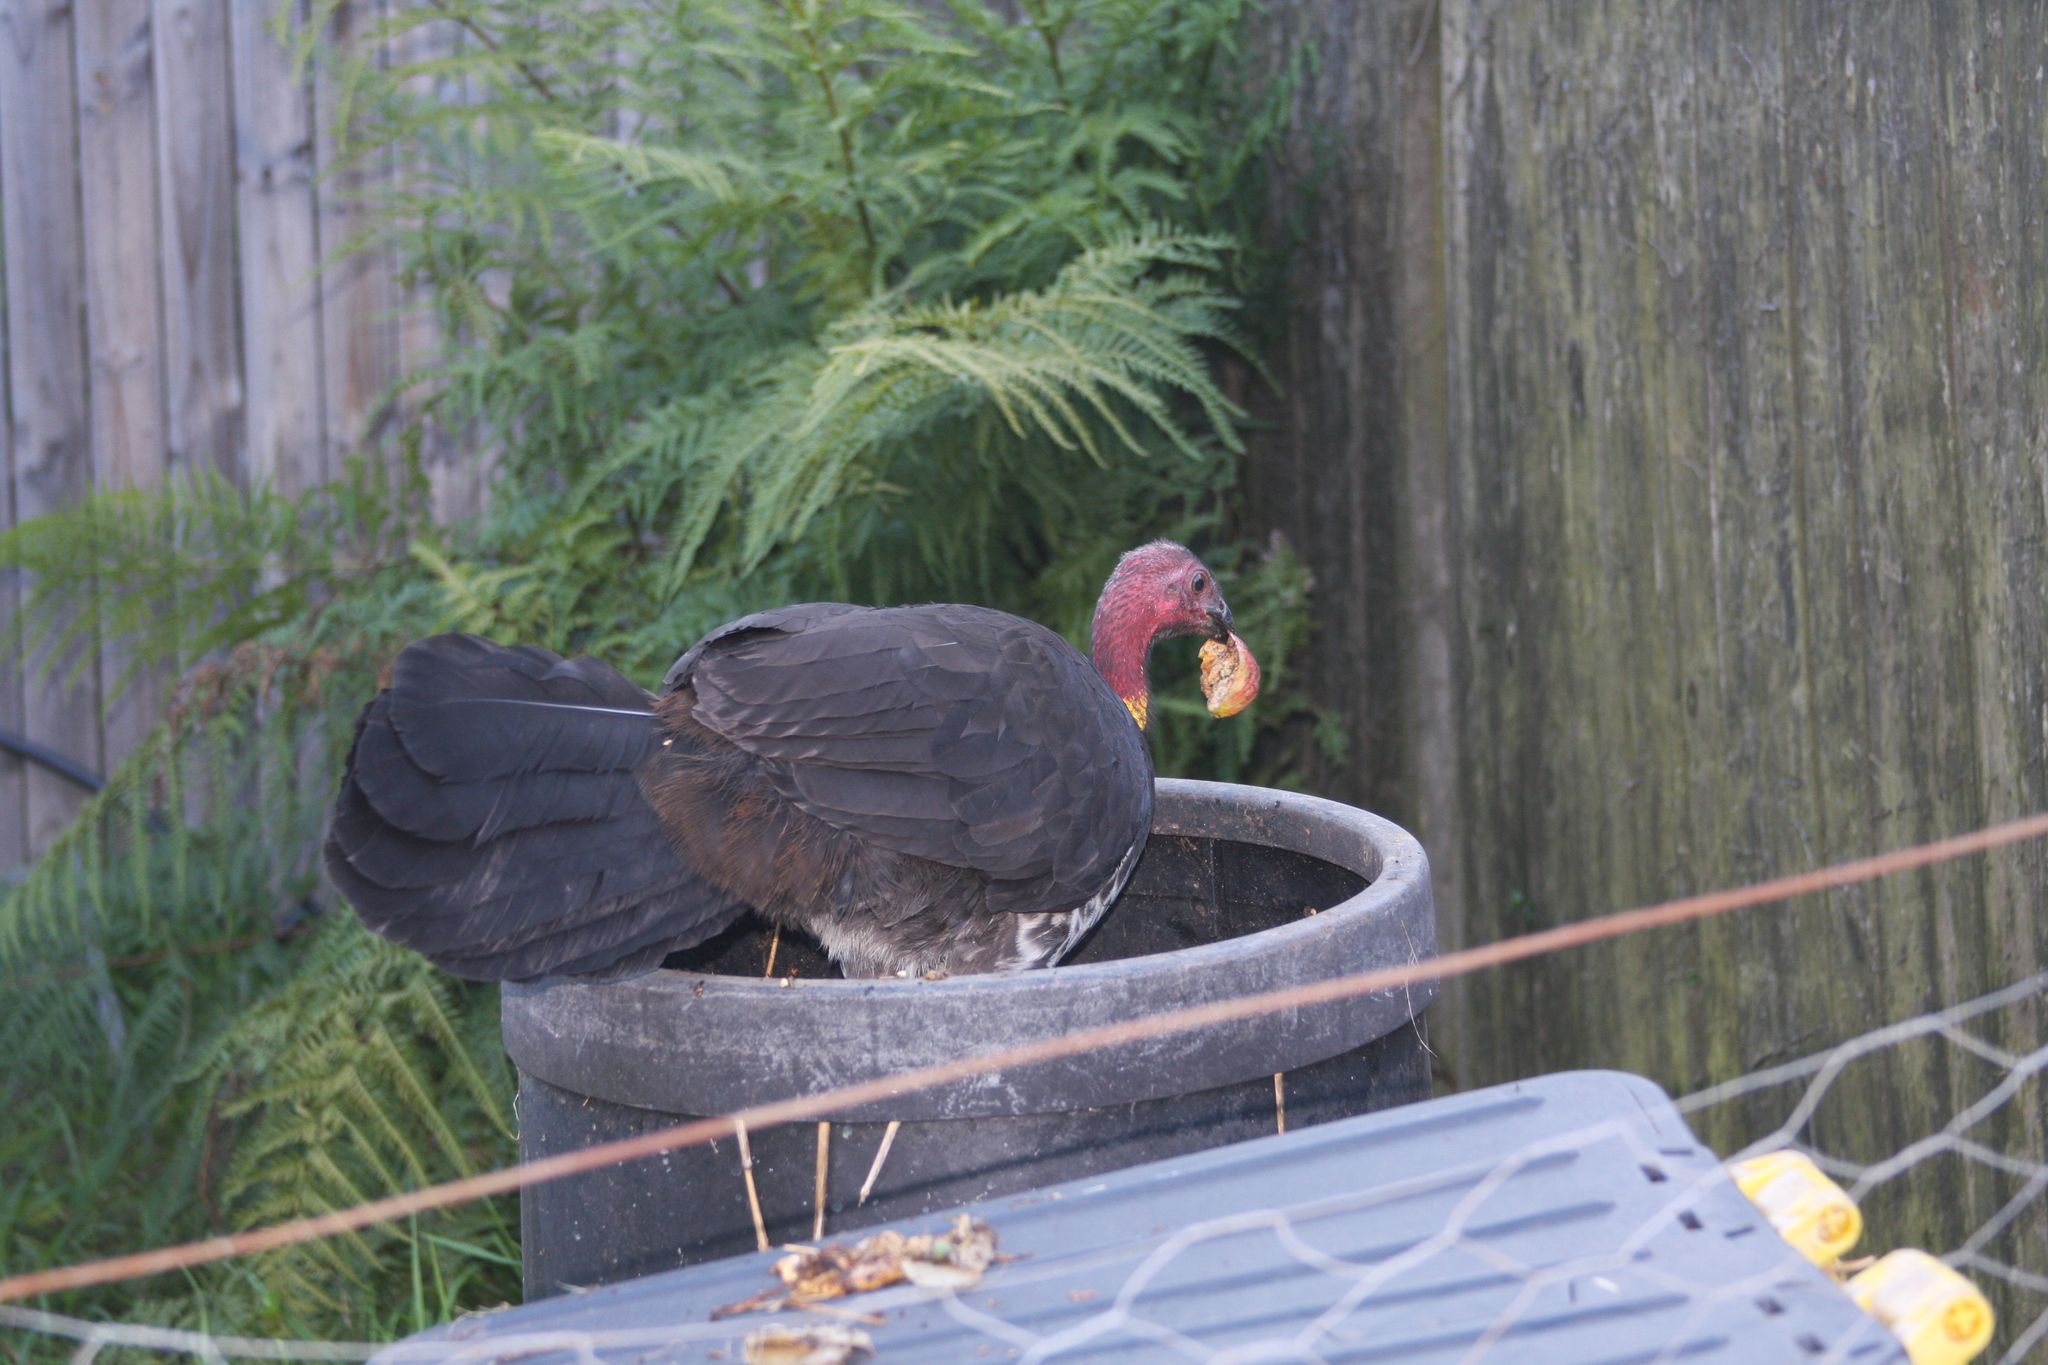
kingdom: Animalia
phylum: Chordata
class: Aves
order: Galliformes
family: Megapodiidae
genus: Alectura
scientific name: Alectura lathami
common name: Australian brushturkey
